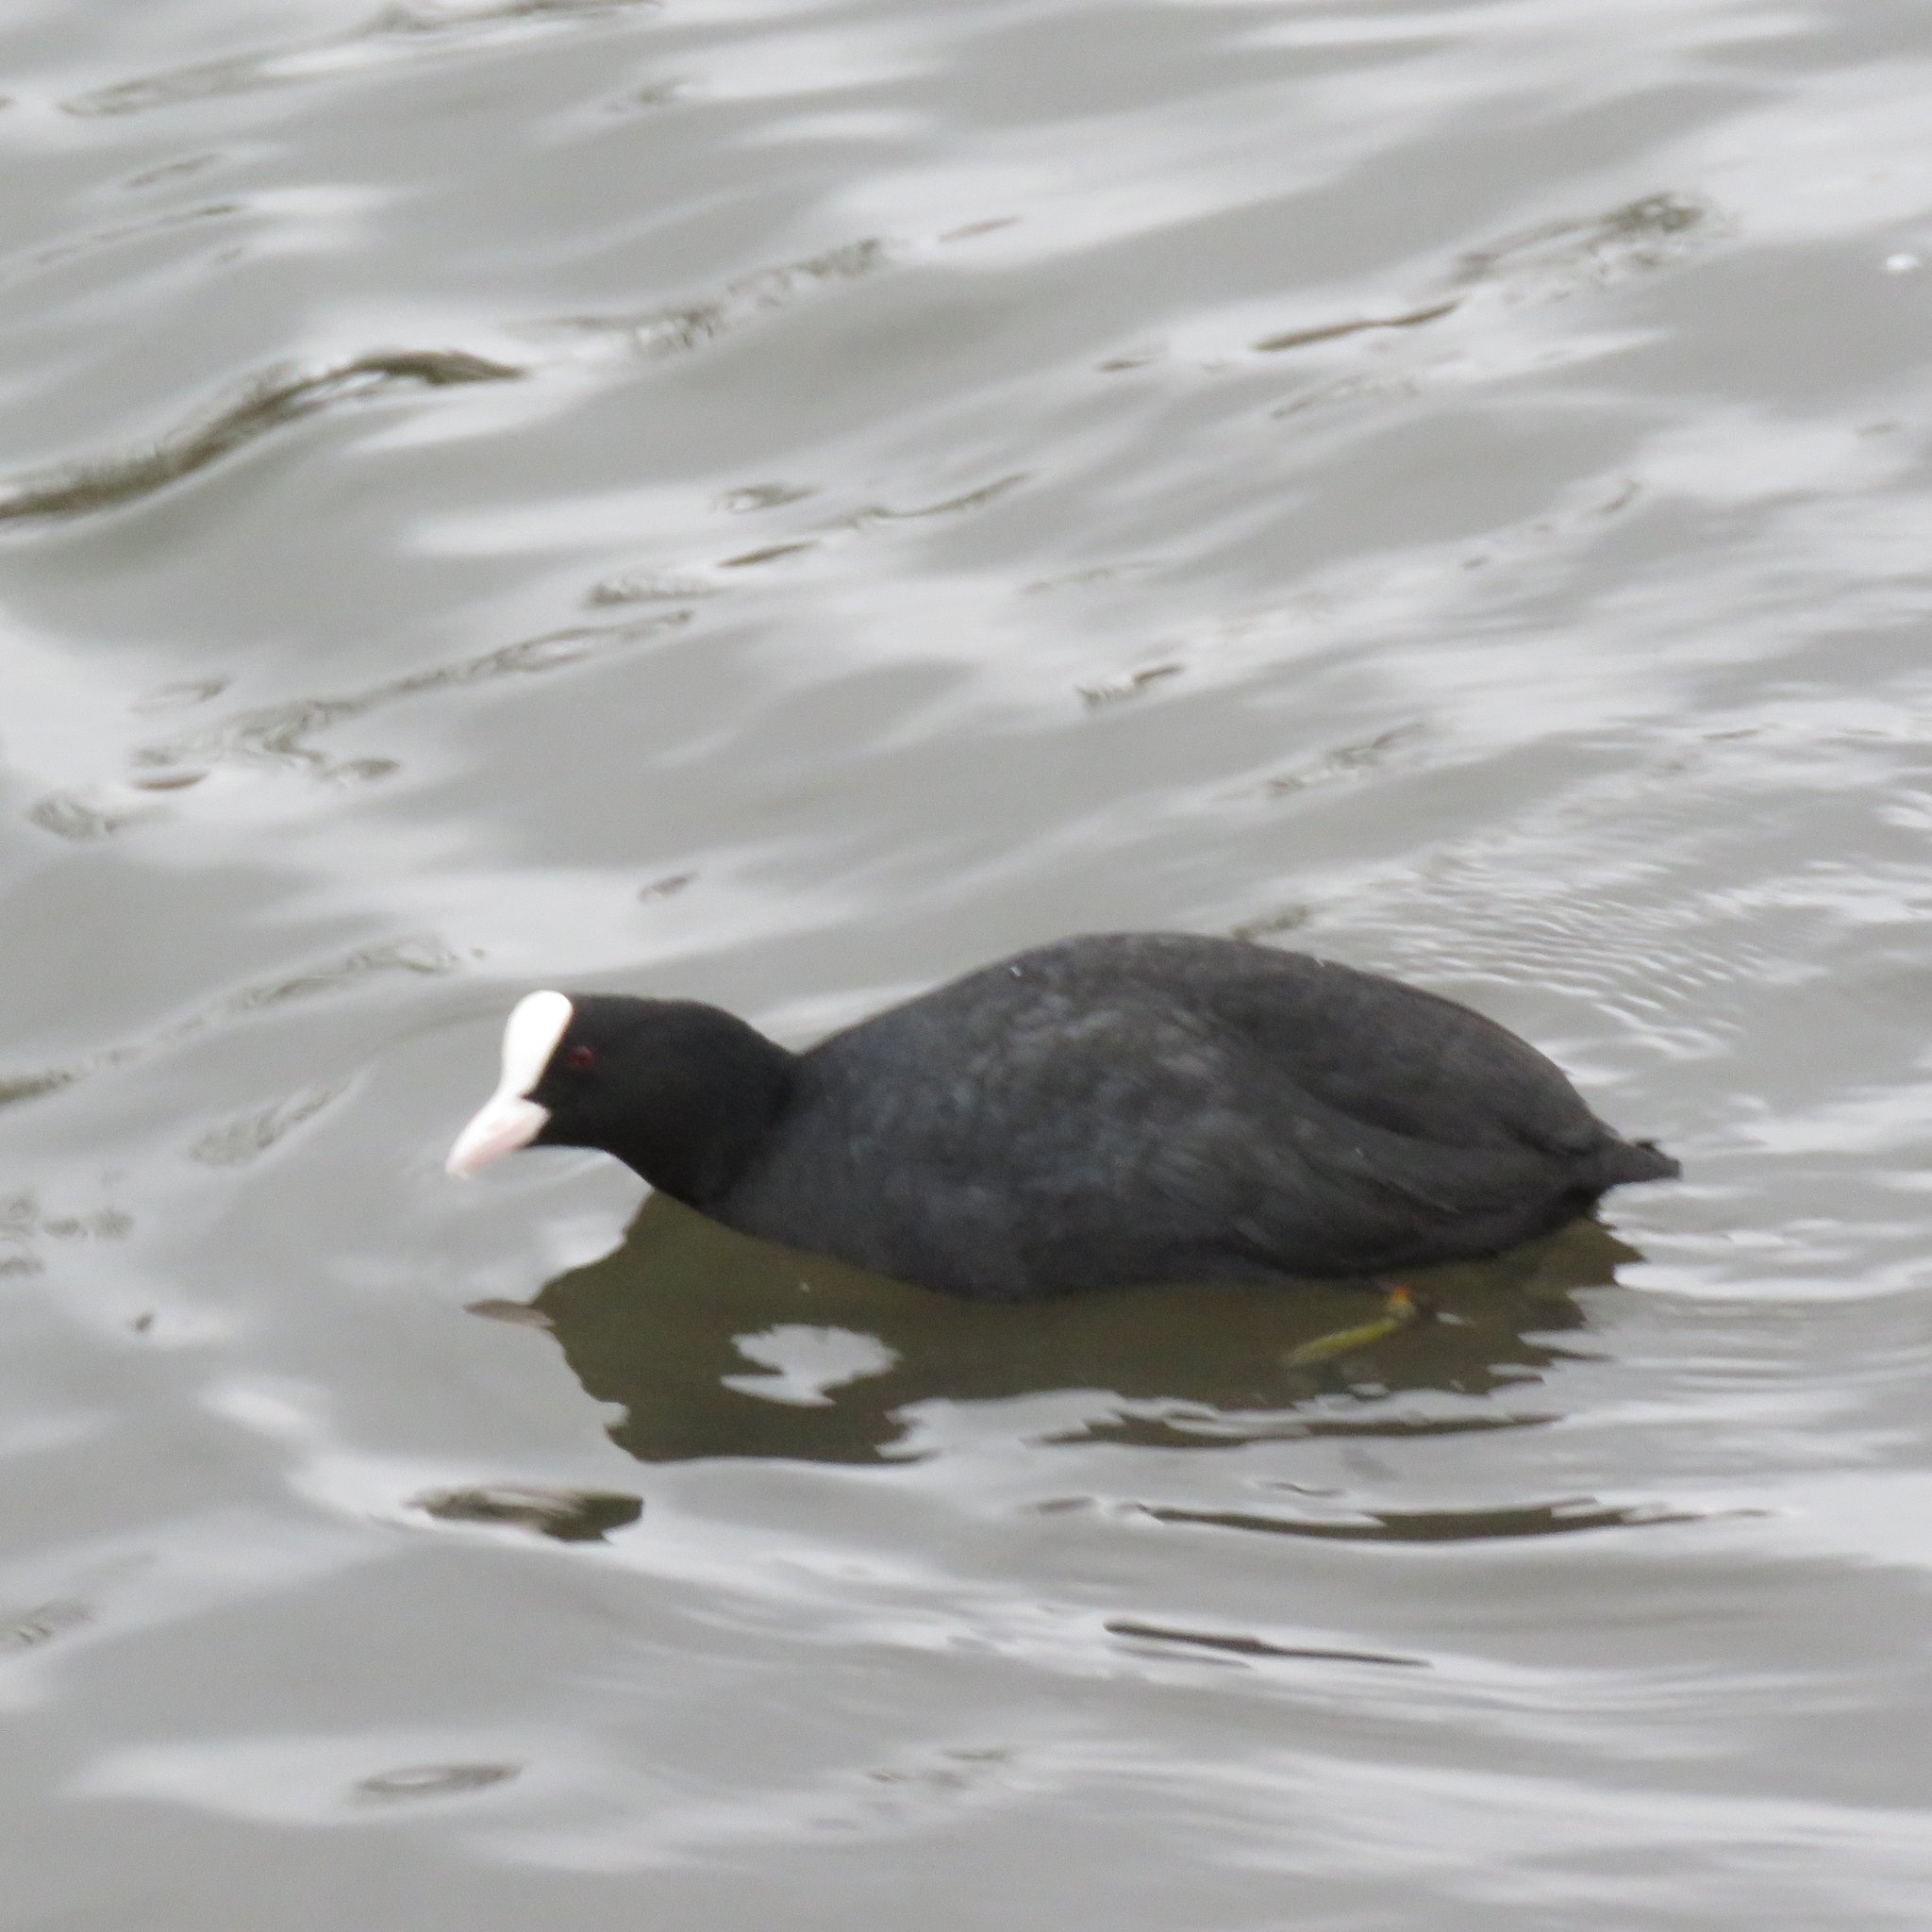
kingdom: Animalia
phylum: Chordata
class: Aves
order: Gruiformes
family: Rallidae
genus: Fulica
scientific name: Fulica atra
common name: Eurasian coot
